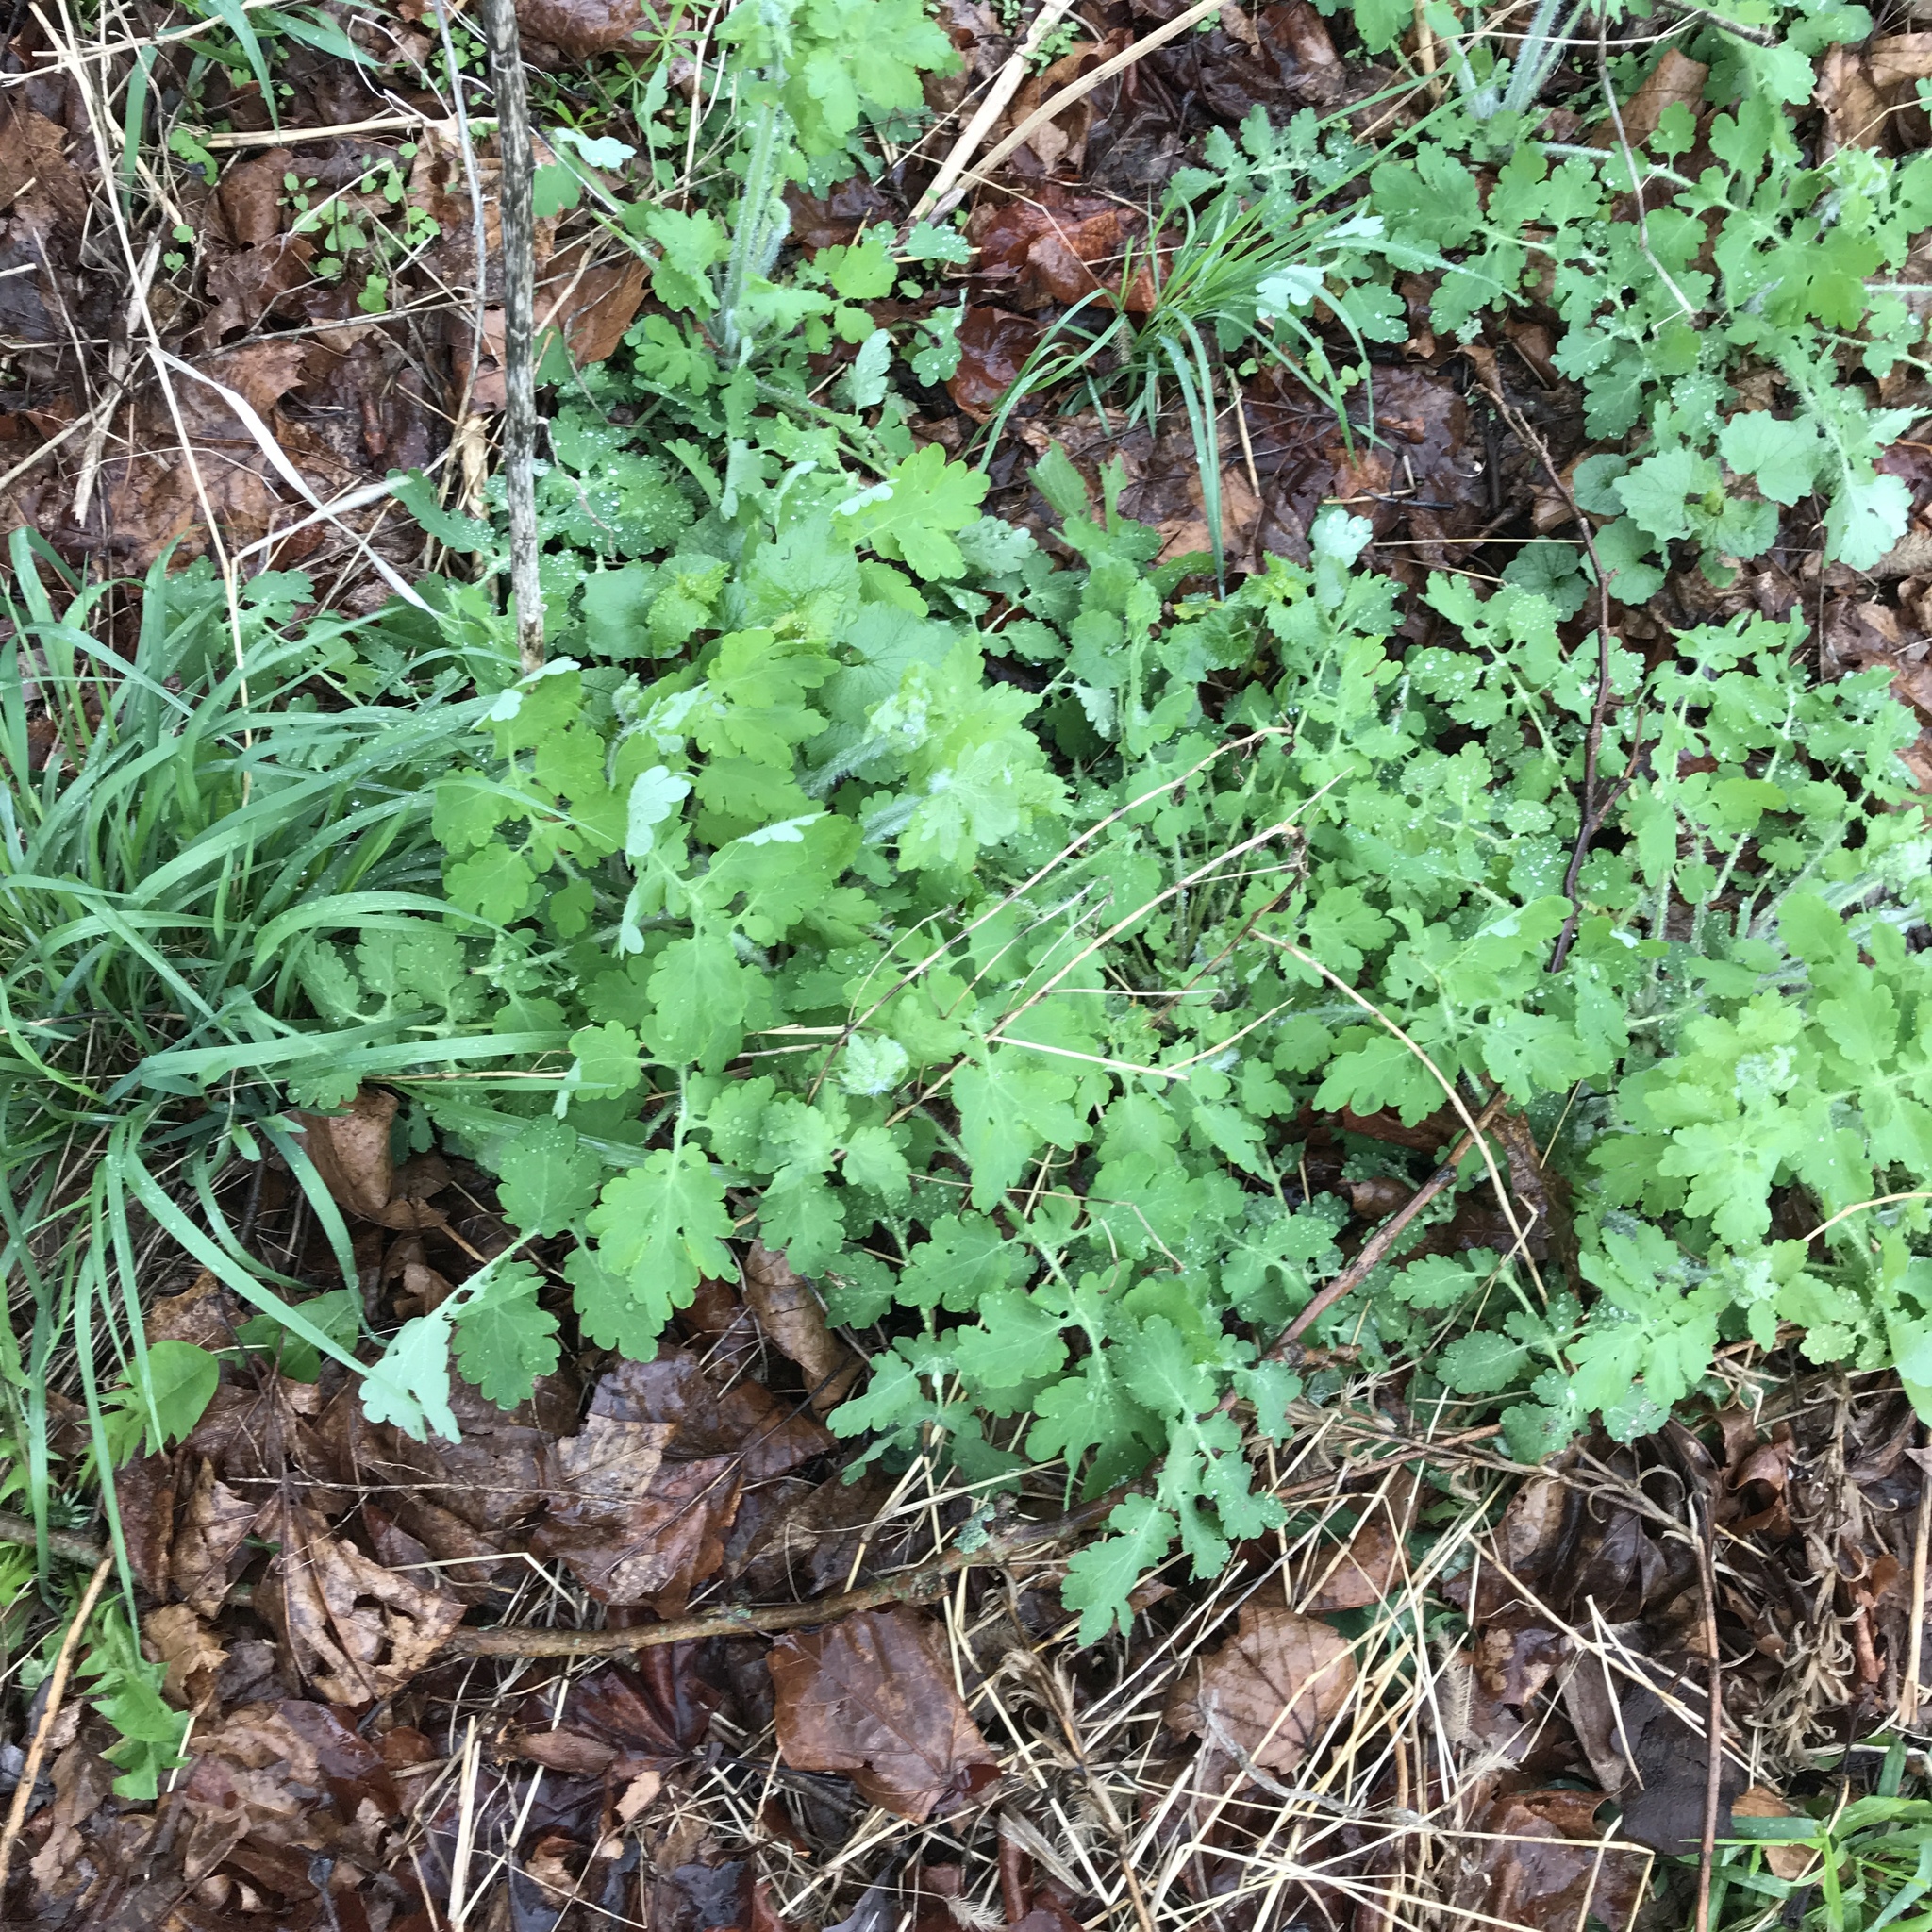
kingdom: Plantae
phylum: Tracheophyta
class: Magnoliopsida
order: Ranunculales
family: Papaveraceae
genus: Chelidonium
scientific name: Chelidonium majus
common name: Greater celandine
